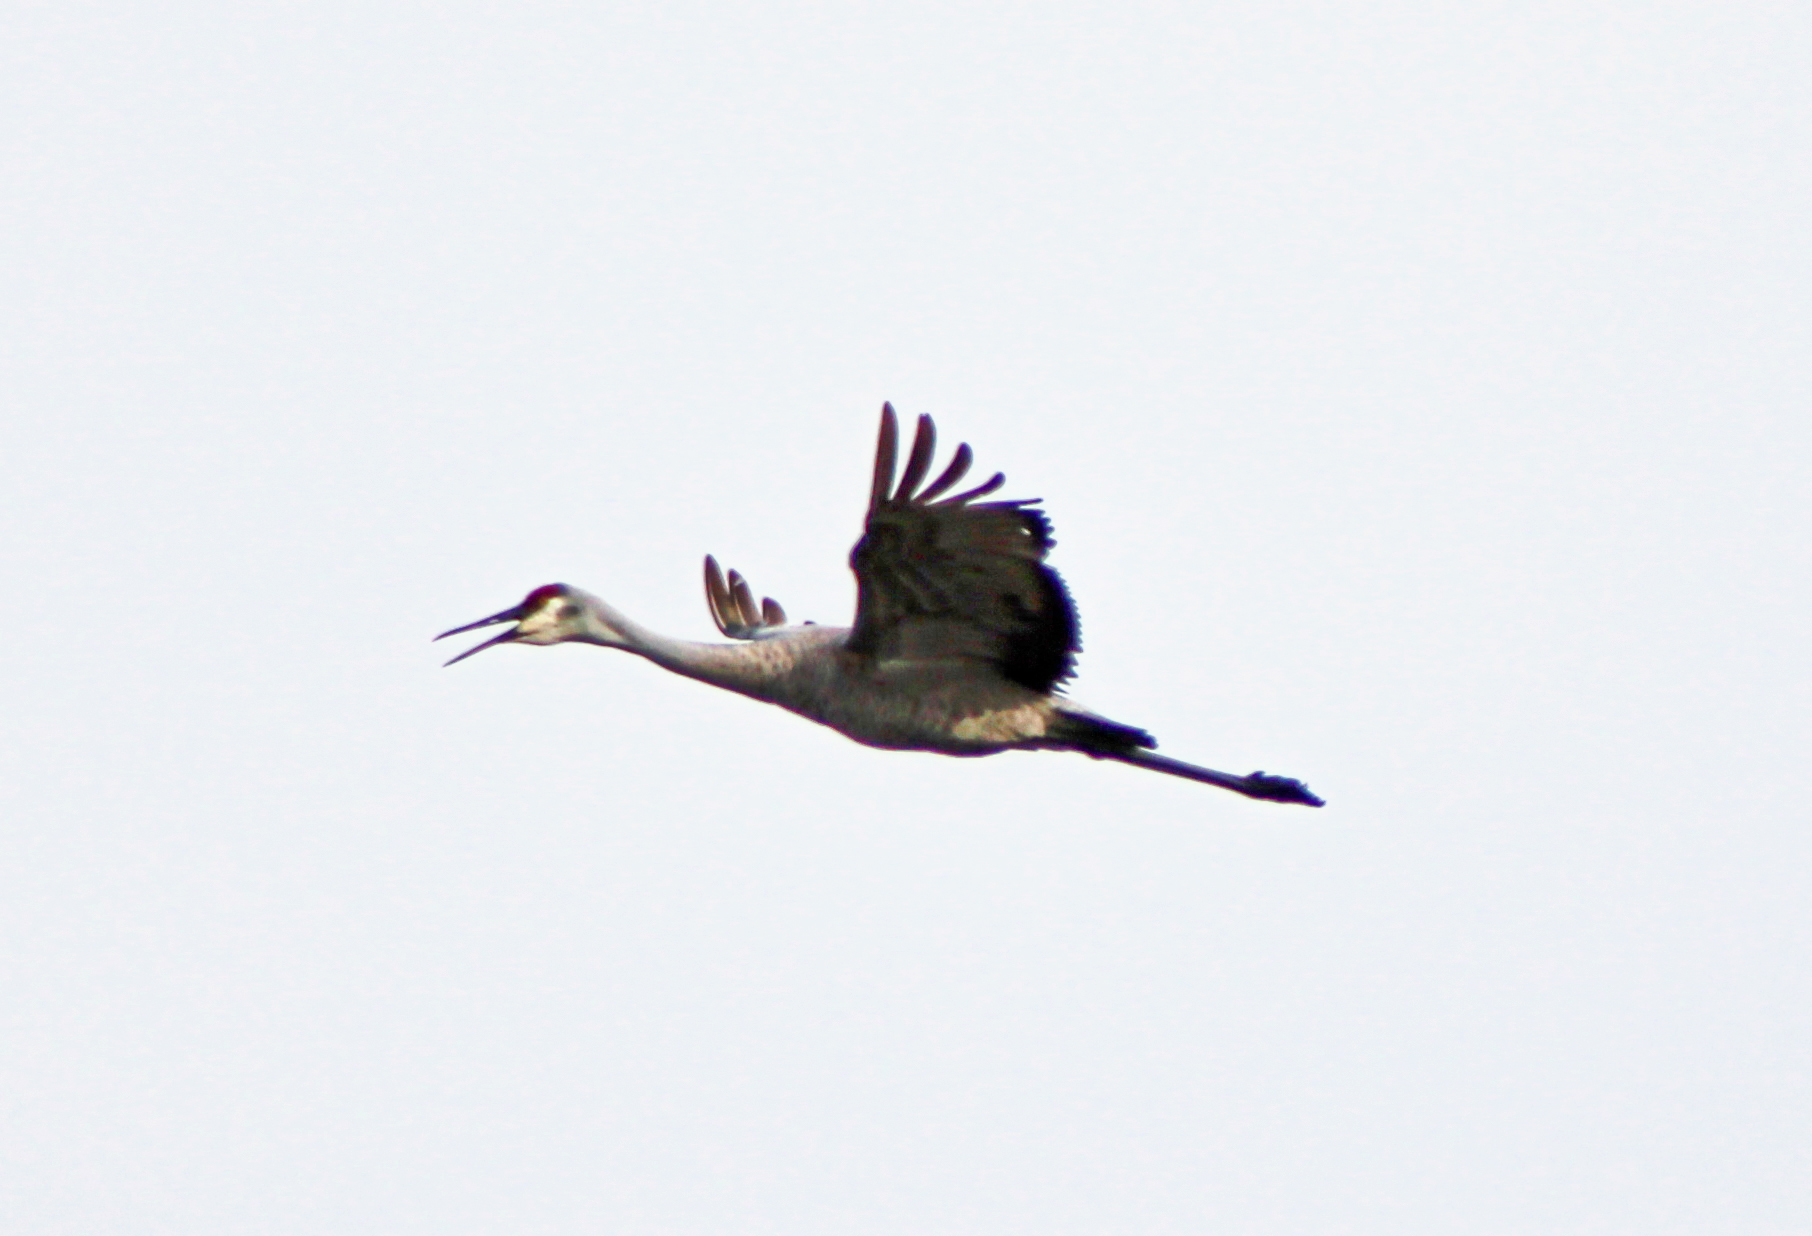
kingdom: Animalia
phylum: Chordata
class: Aves
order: Gruiformes
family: Gruidae
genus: Grus
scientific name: Grus canadensis
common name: Sandhill crane
